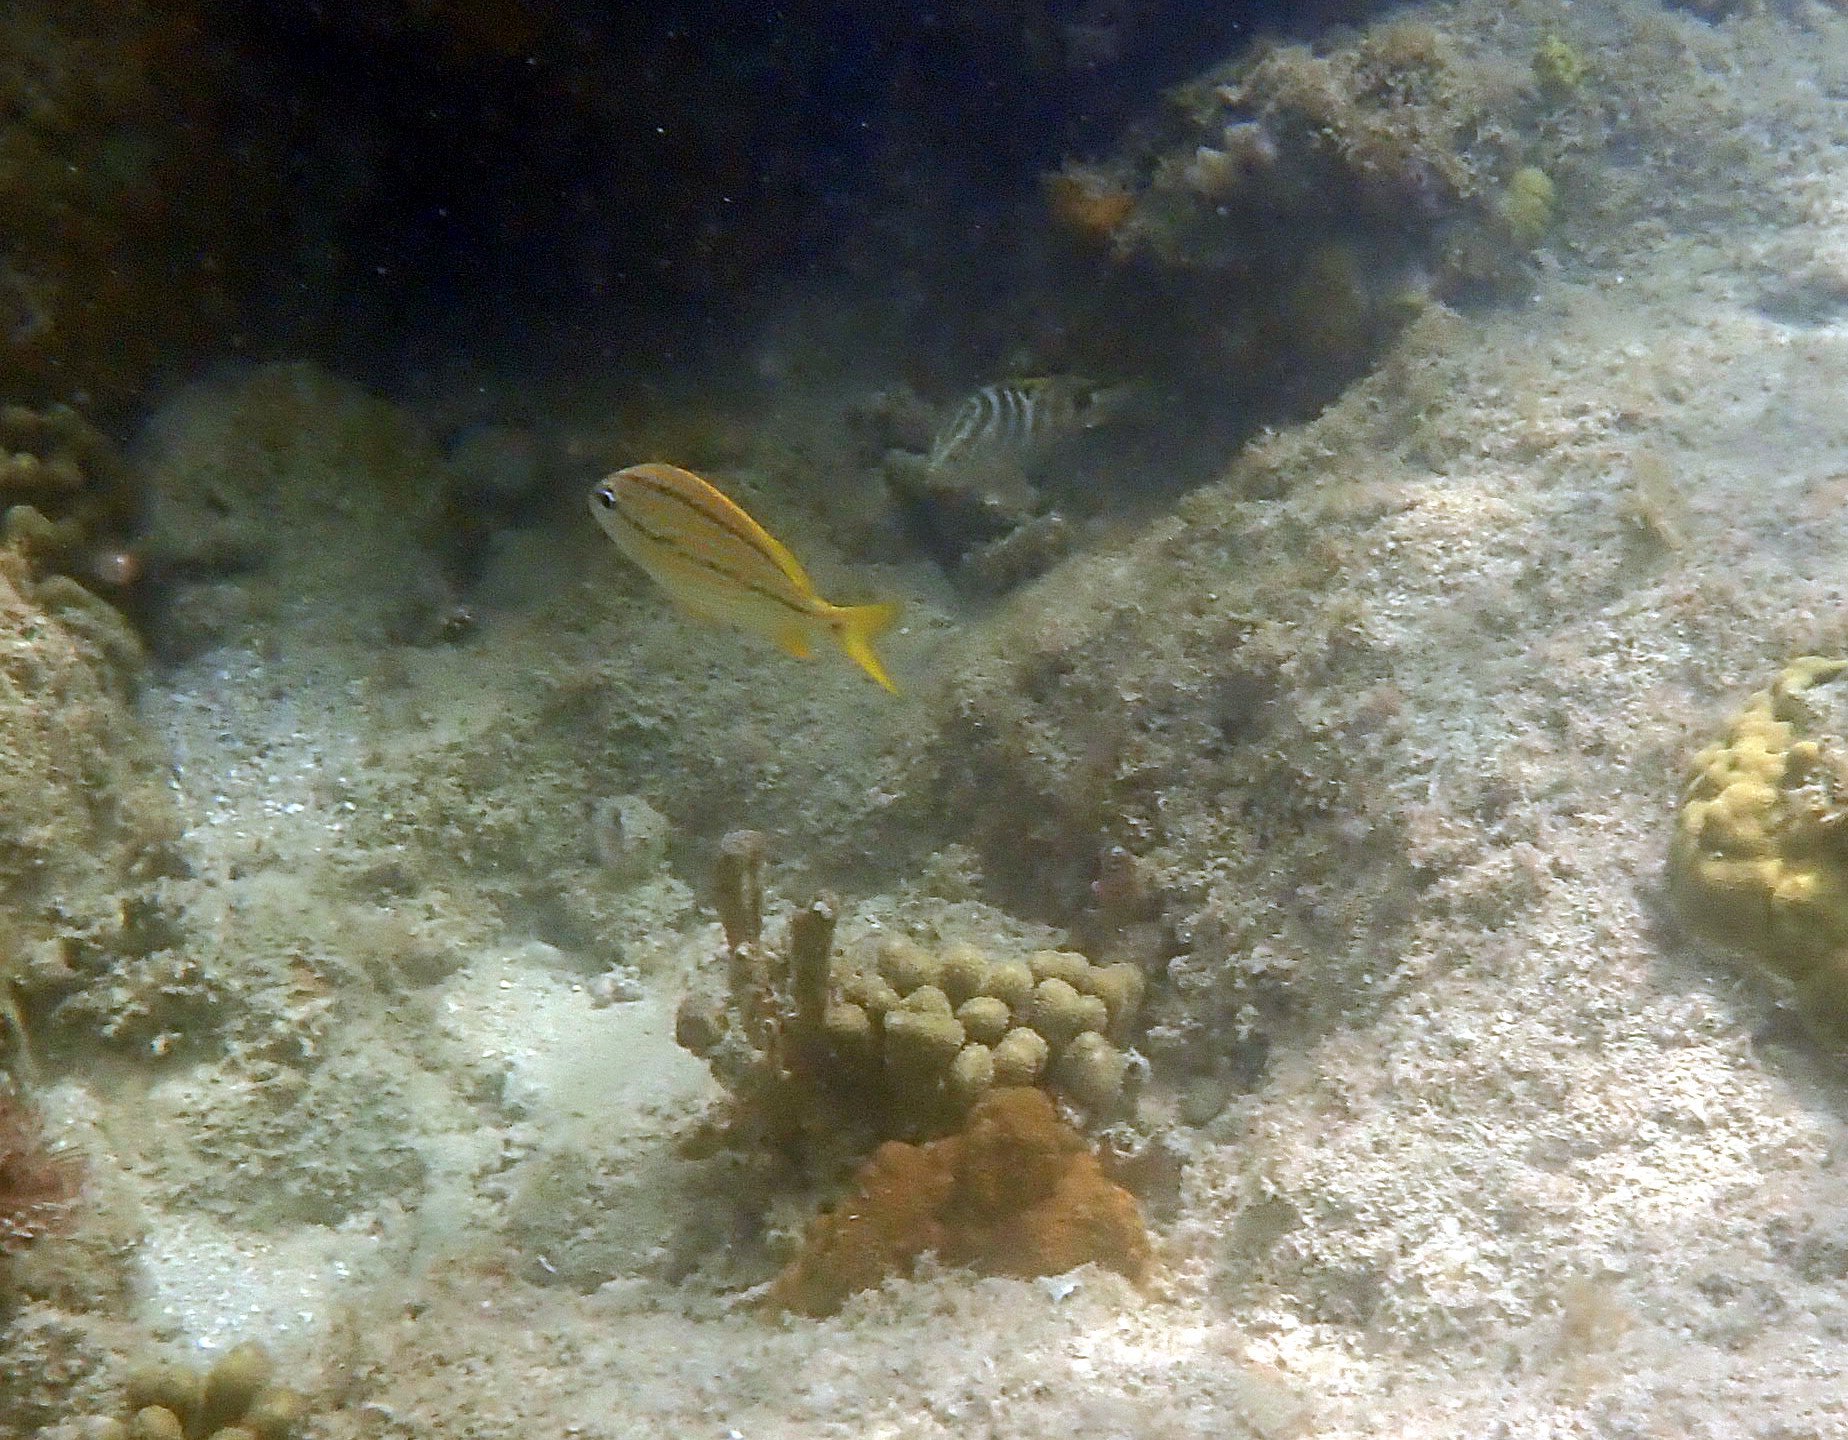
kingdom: Animalia
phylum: Chordata
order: Perciformes
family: Haemulidae
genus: Haemulon
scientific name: Haemulon flavolineatum
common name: French grunt
